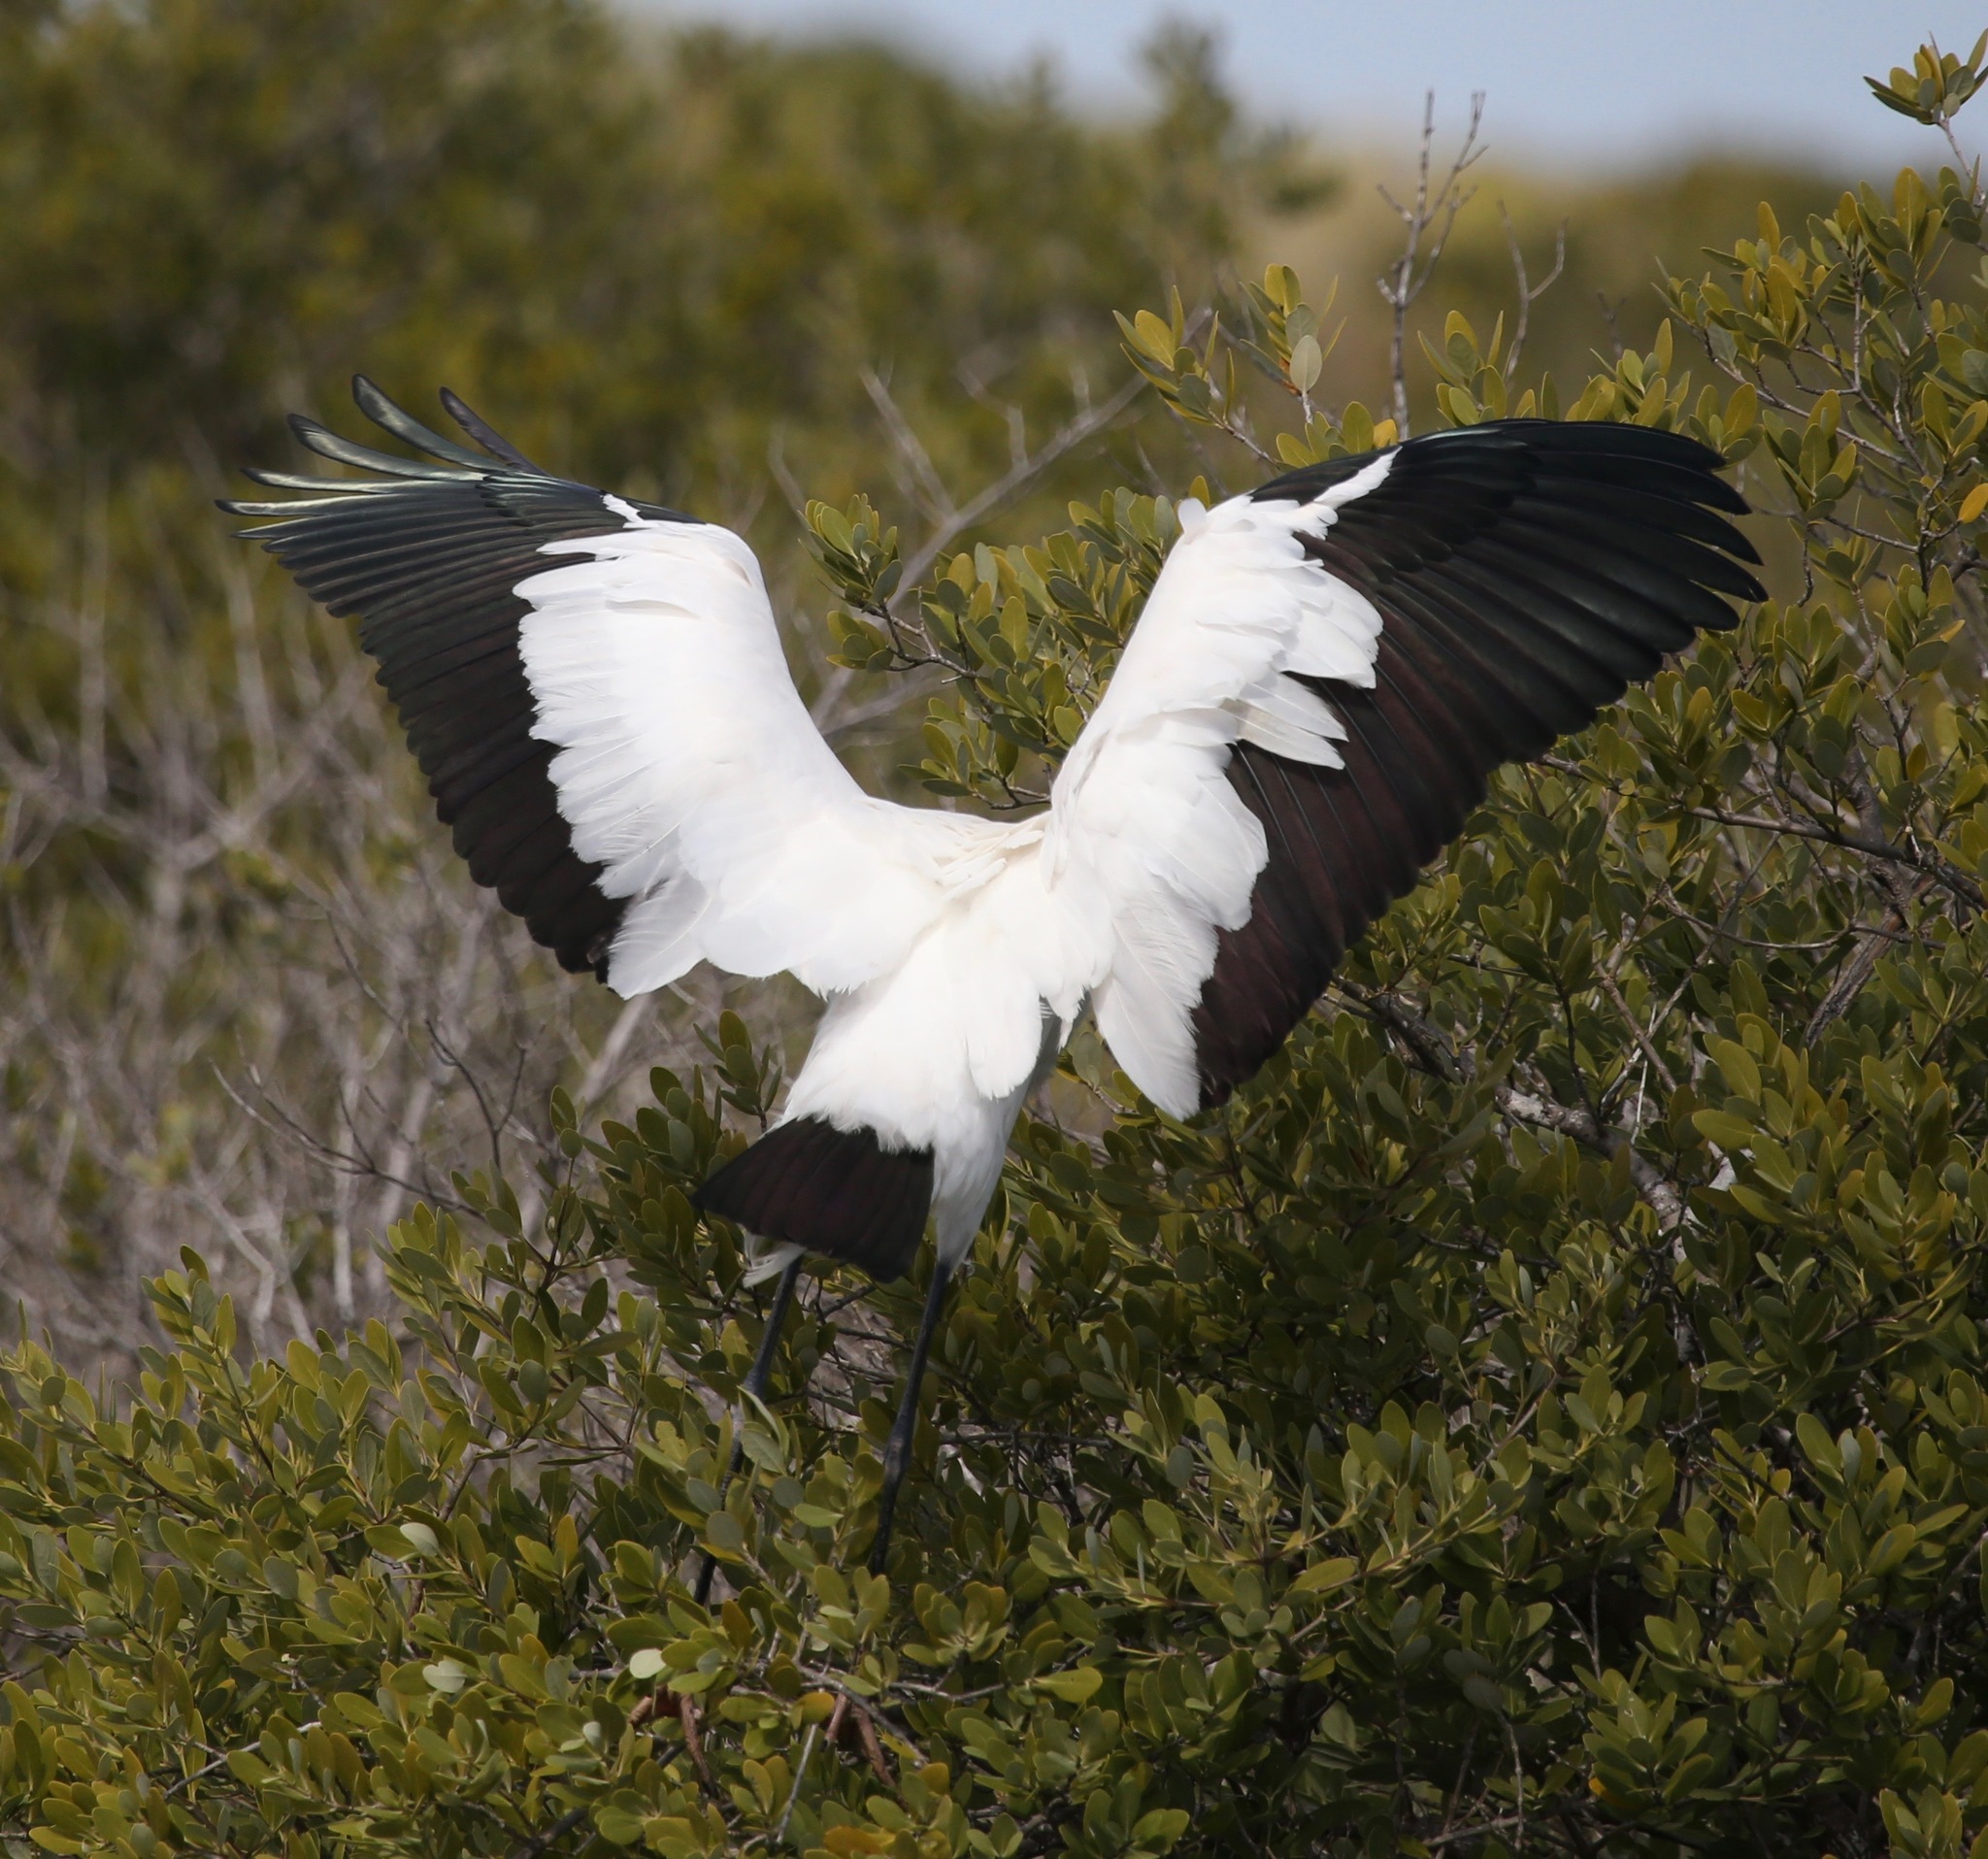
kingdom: Animalia
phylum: Chordata
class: Aves
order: Ciconiiformes
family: Ciconiidae
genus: Mycteria
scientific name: Mycteria americana
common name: Wood stork
